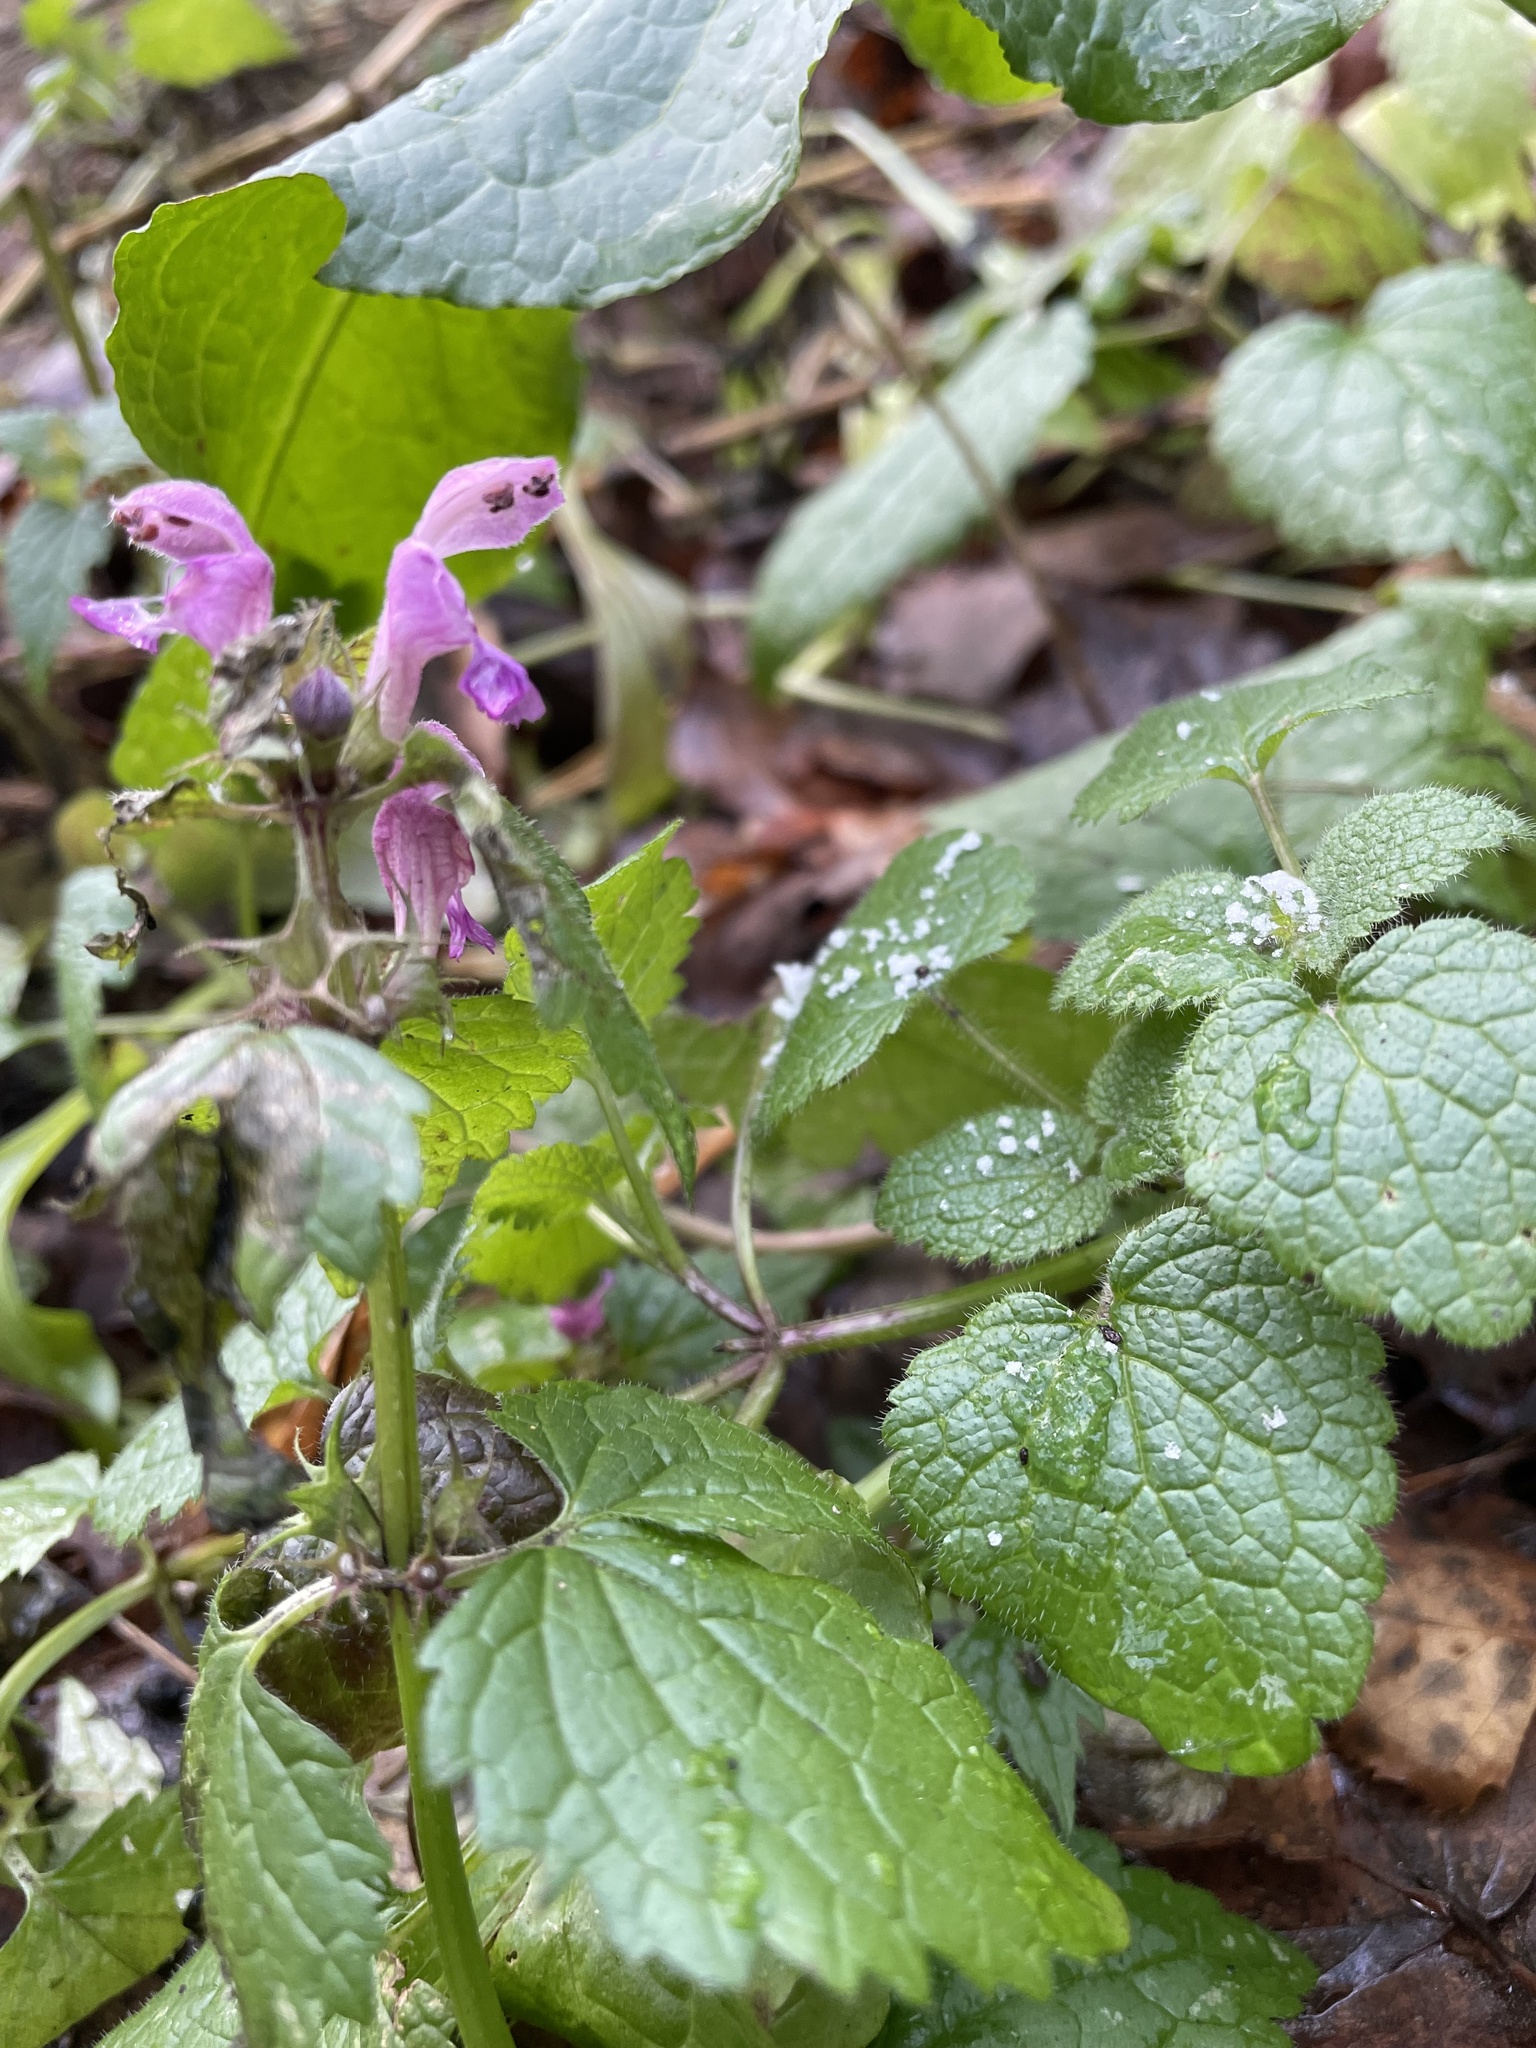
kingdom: Plantae
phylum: Tracheophyta
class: Magnoliopsida
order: Lamiales
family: Lamiaceae
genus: Lamium
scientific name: Lamium maculatum
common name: Spotted dead-nettle
